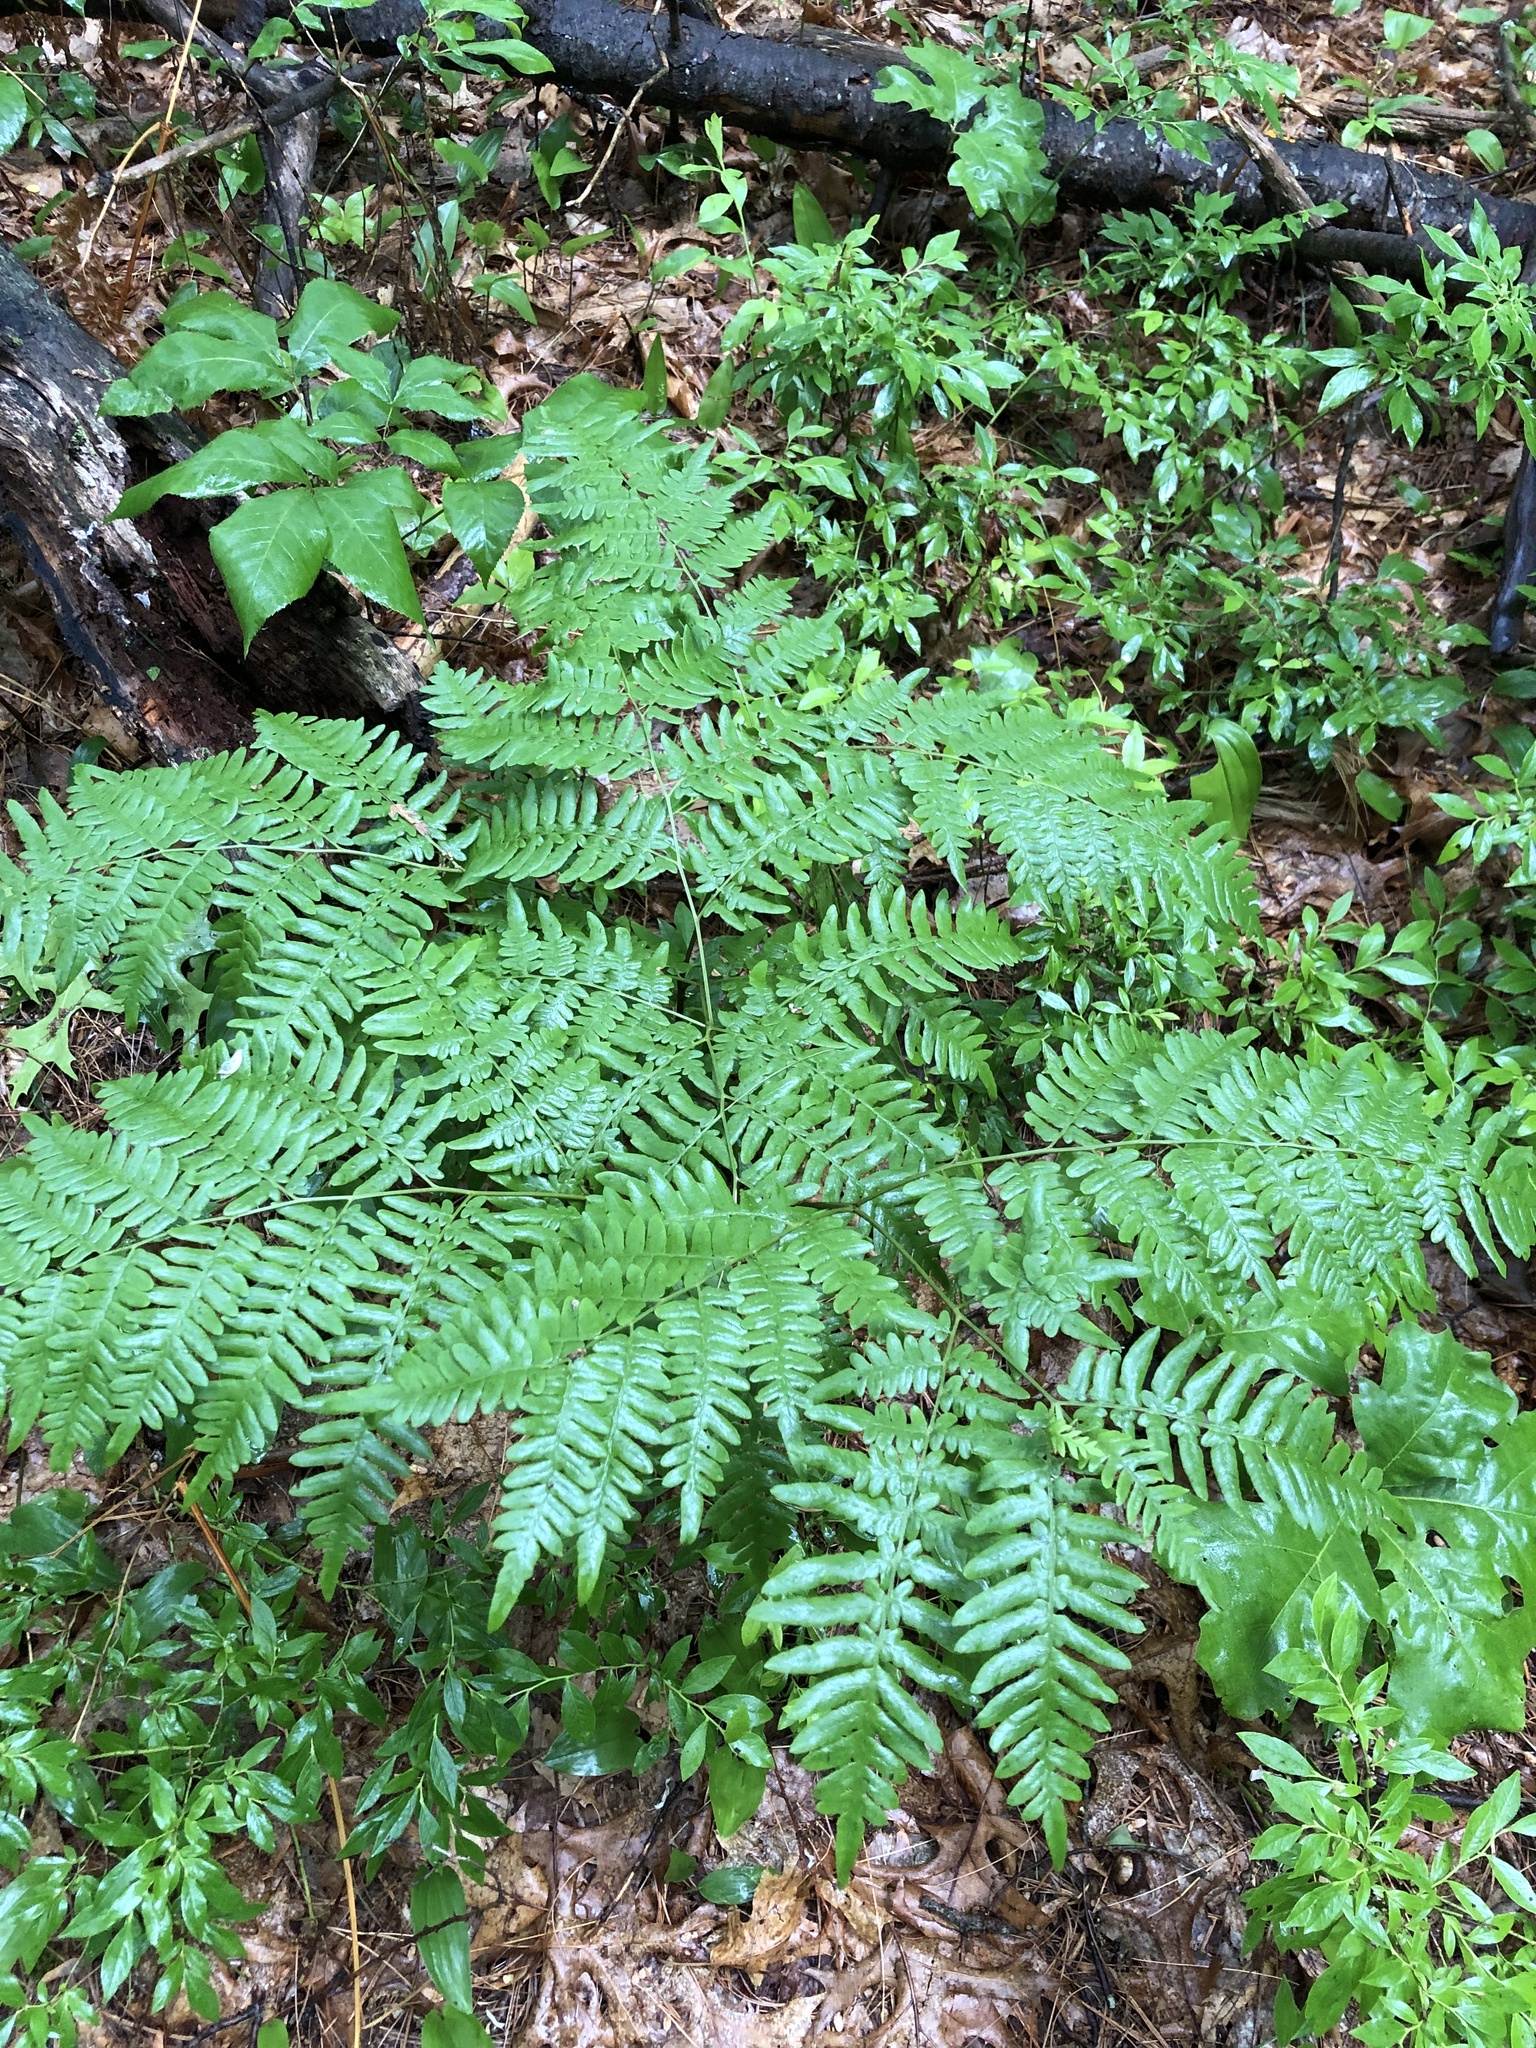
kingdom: Plantae
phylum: Tracheophyta
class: Polypodiopsida
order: Polypodiales
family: Dennstaedtiaceae
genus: Pteridium
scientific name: Pteridium aquilinum
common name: Bracken
